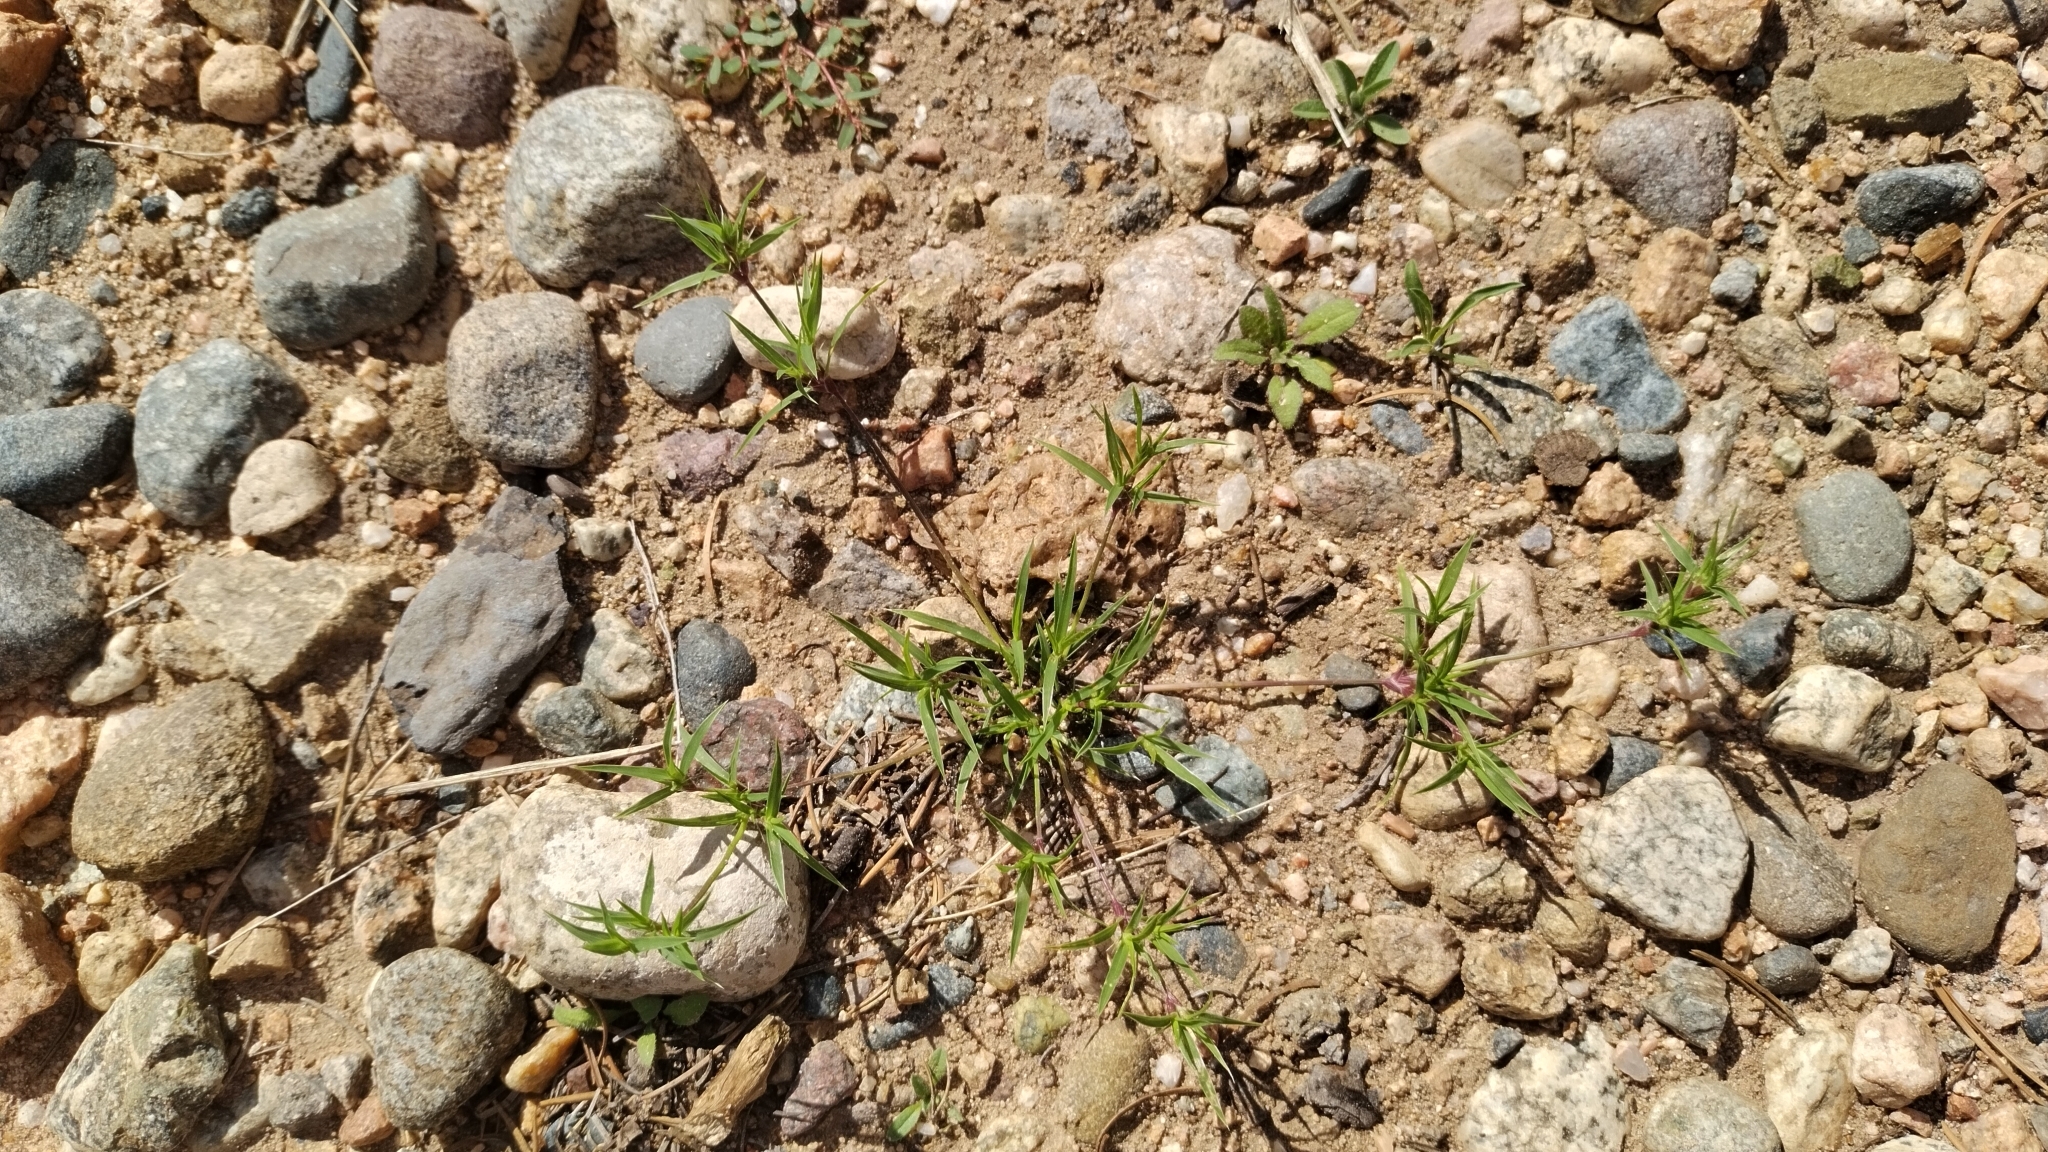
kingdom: Plantae
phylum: Tracheophyta
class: Liliopsida
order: Poales
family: Poaceae
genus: Munroa
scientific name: Munroa squarrosa
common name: False buffalo grass
